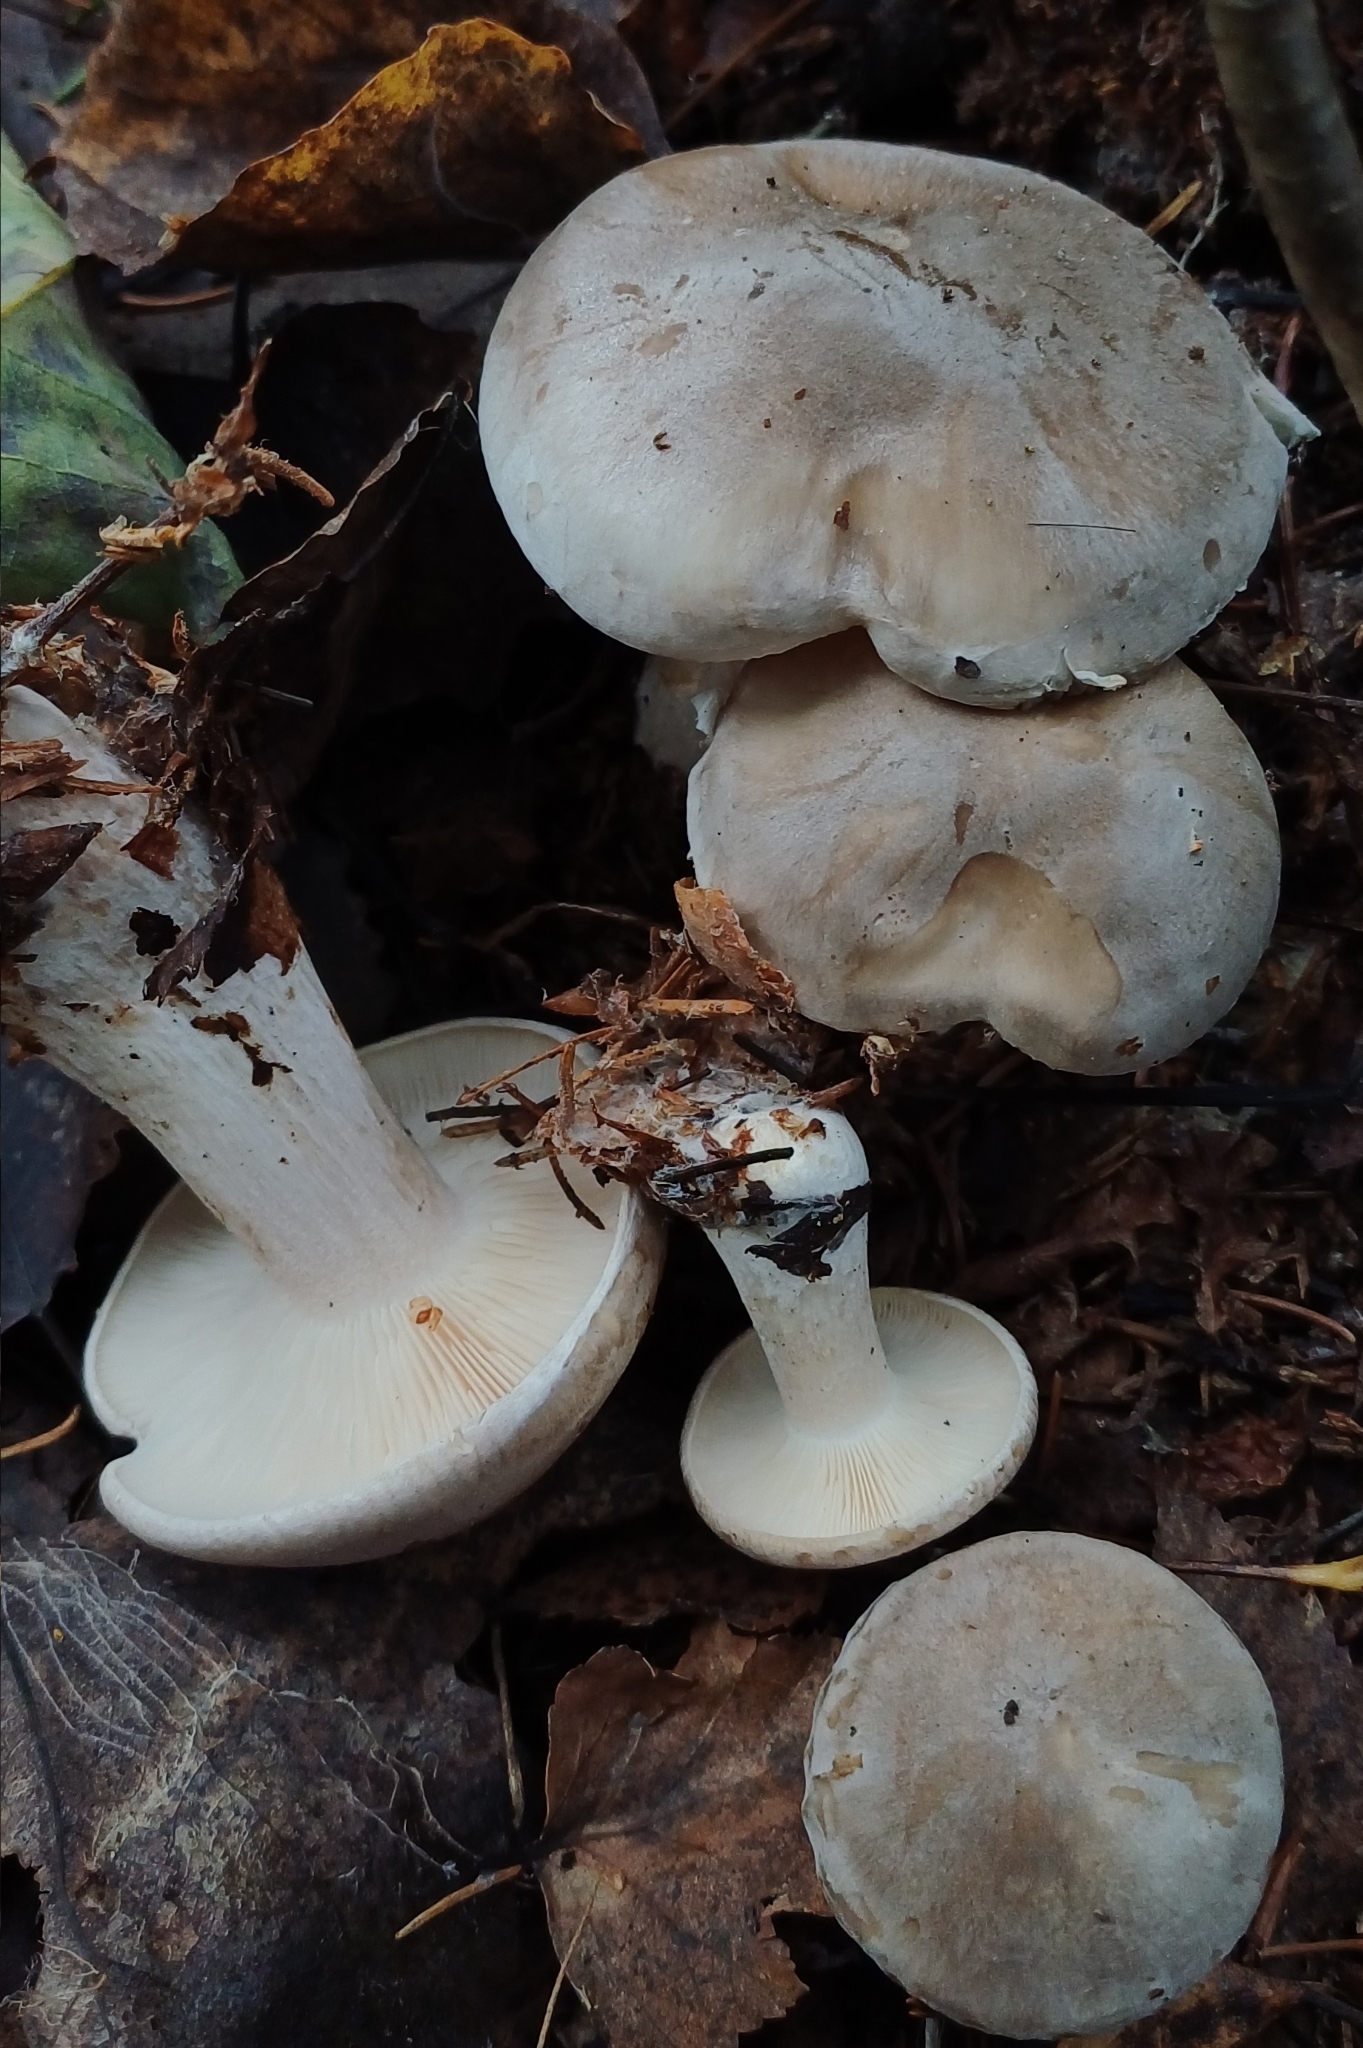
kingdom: Fungi
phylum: Basidiomycota
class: Agaricomycetes
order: Agaricales
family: Tricholomataceae
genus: Clitocybe
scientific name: Clitocybe nebularis
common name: Clouded agaric
